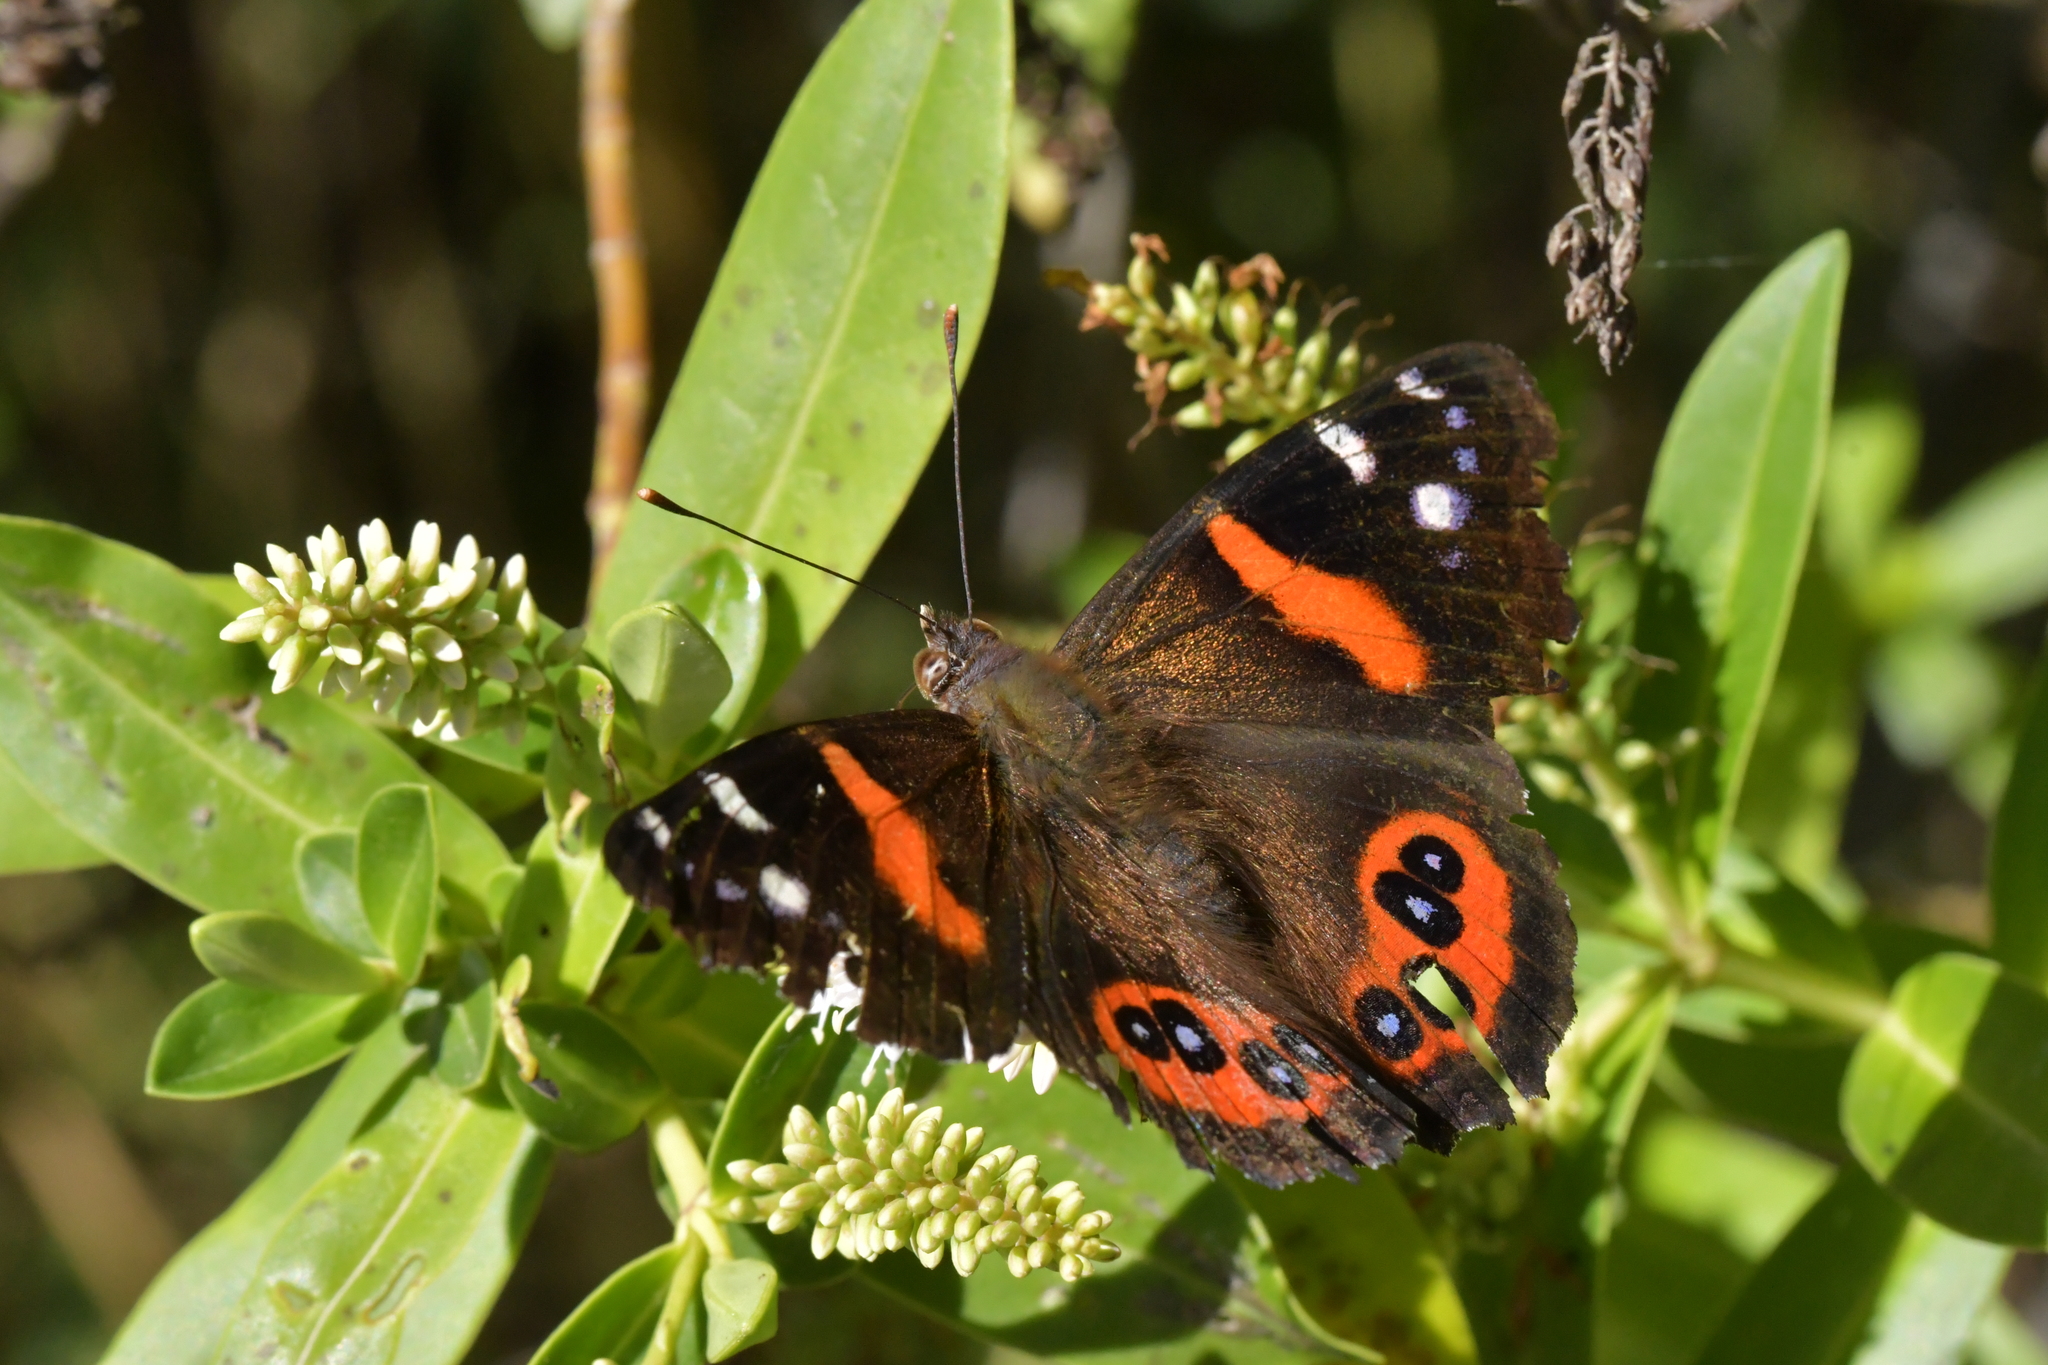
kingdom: Animalia
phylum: Arthropoda
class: Insecta
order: Lepidoptera
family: Nymphalidae
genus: Vanessa
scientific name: Vanessa gonerilla
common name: New zealand red admiral
